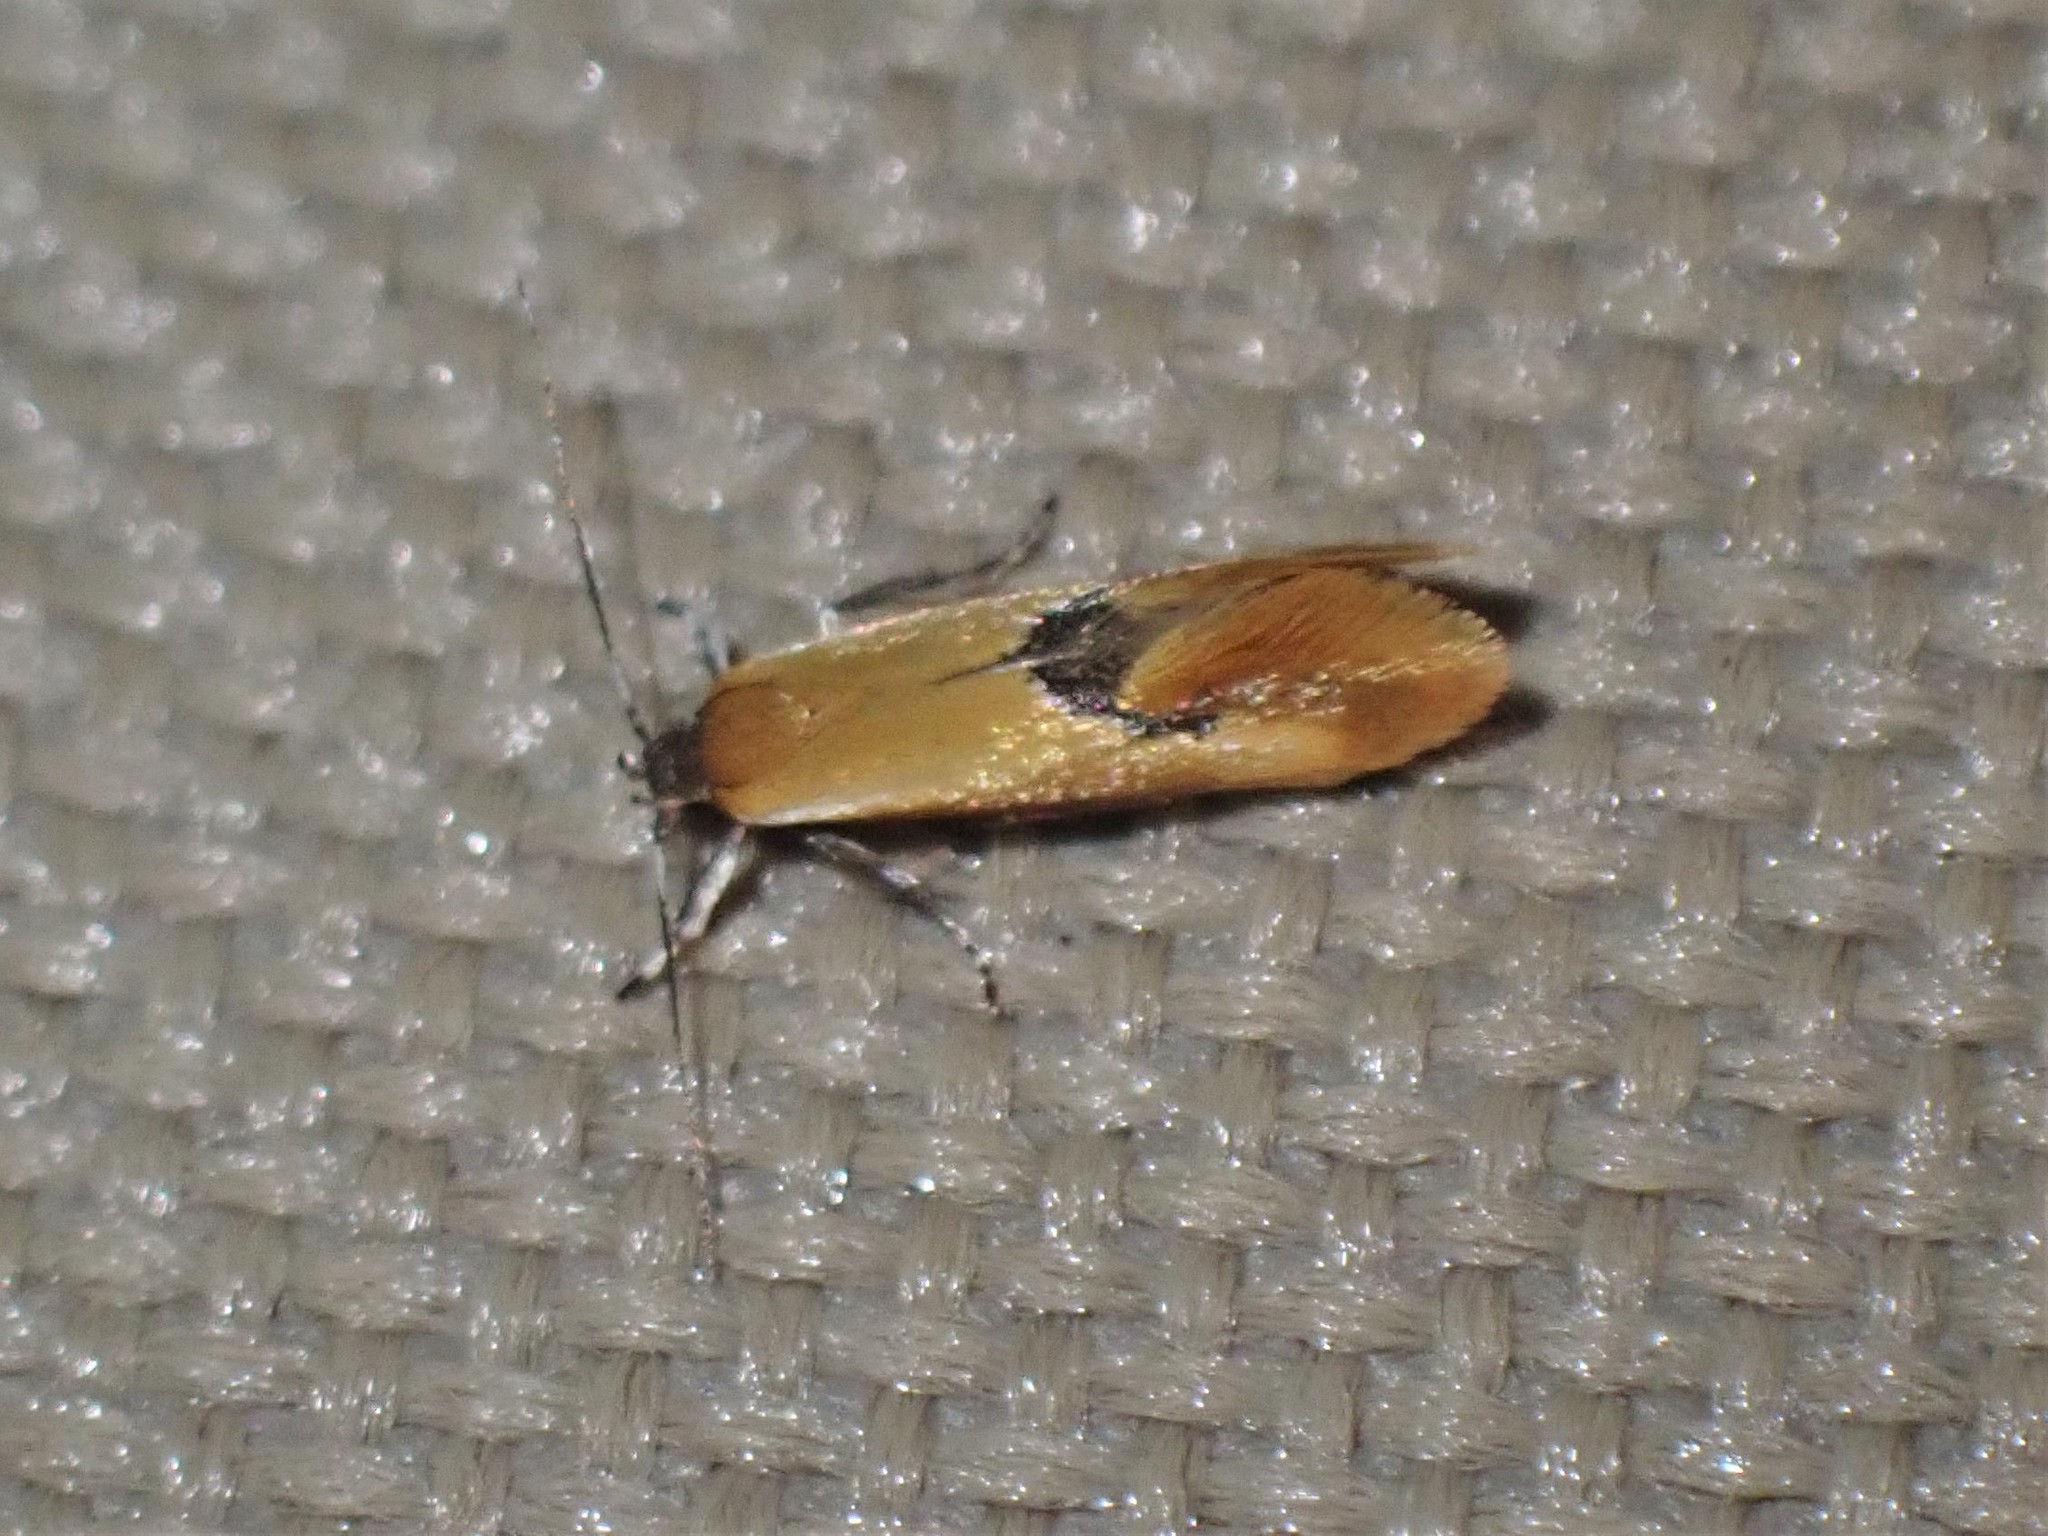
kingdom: Animalia
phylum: Arthropoda
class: Insecta
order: Lepidoptera
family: Oecophoridae
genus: Batia
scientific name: Batia lunaris
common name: Moth
